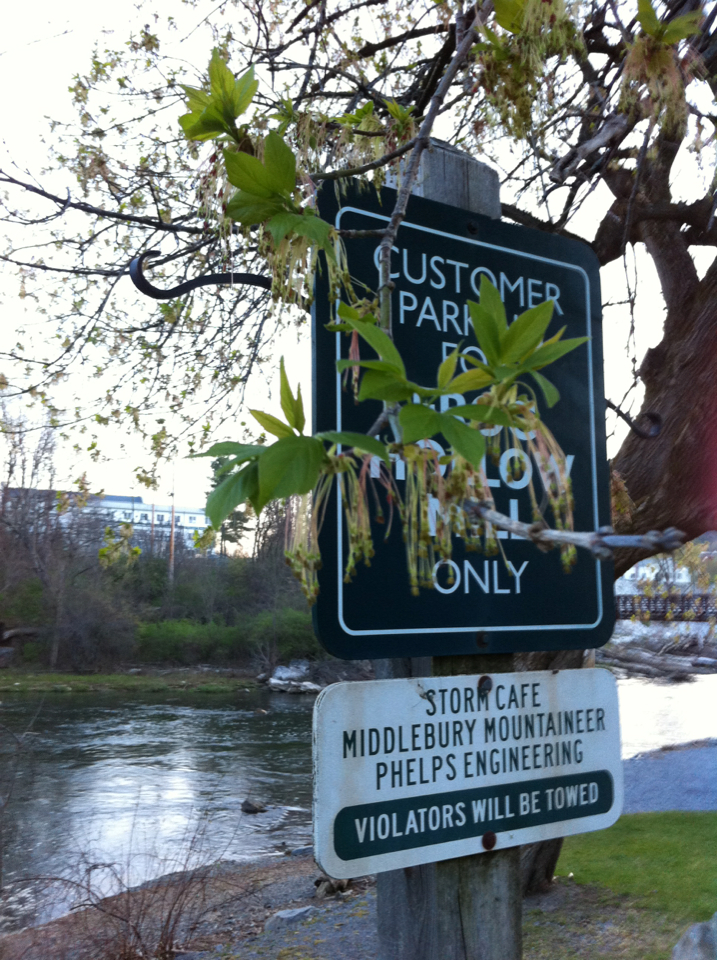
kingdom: Plantae
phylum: Tracheophyta
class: Magnoliopsida
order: Sapindales
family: Sapindaceae
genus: Acer
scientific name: Acer negundo
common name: Ashleaf maple
